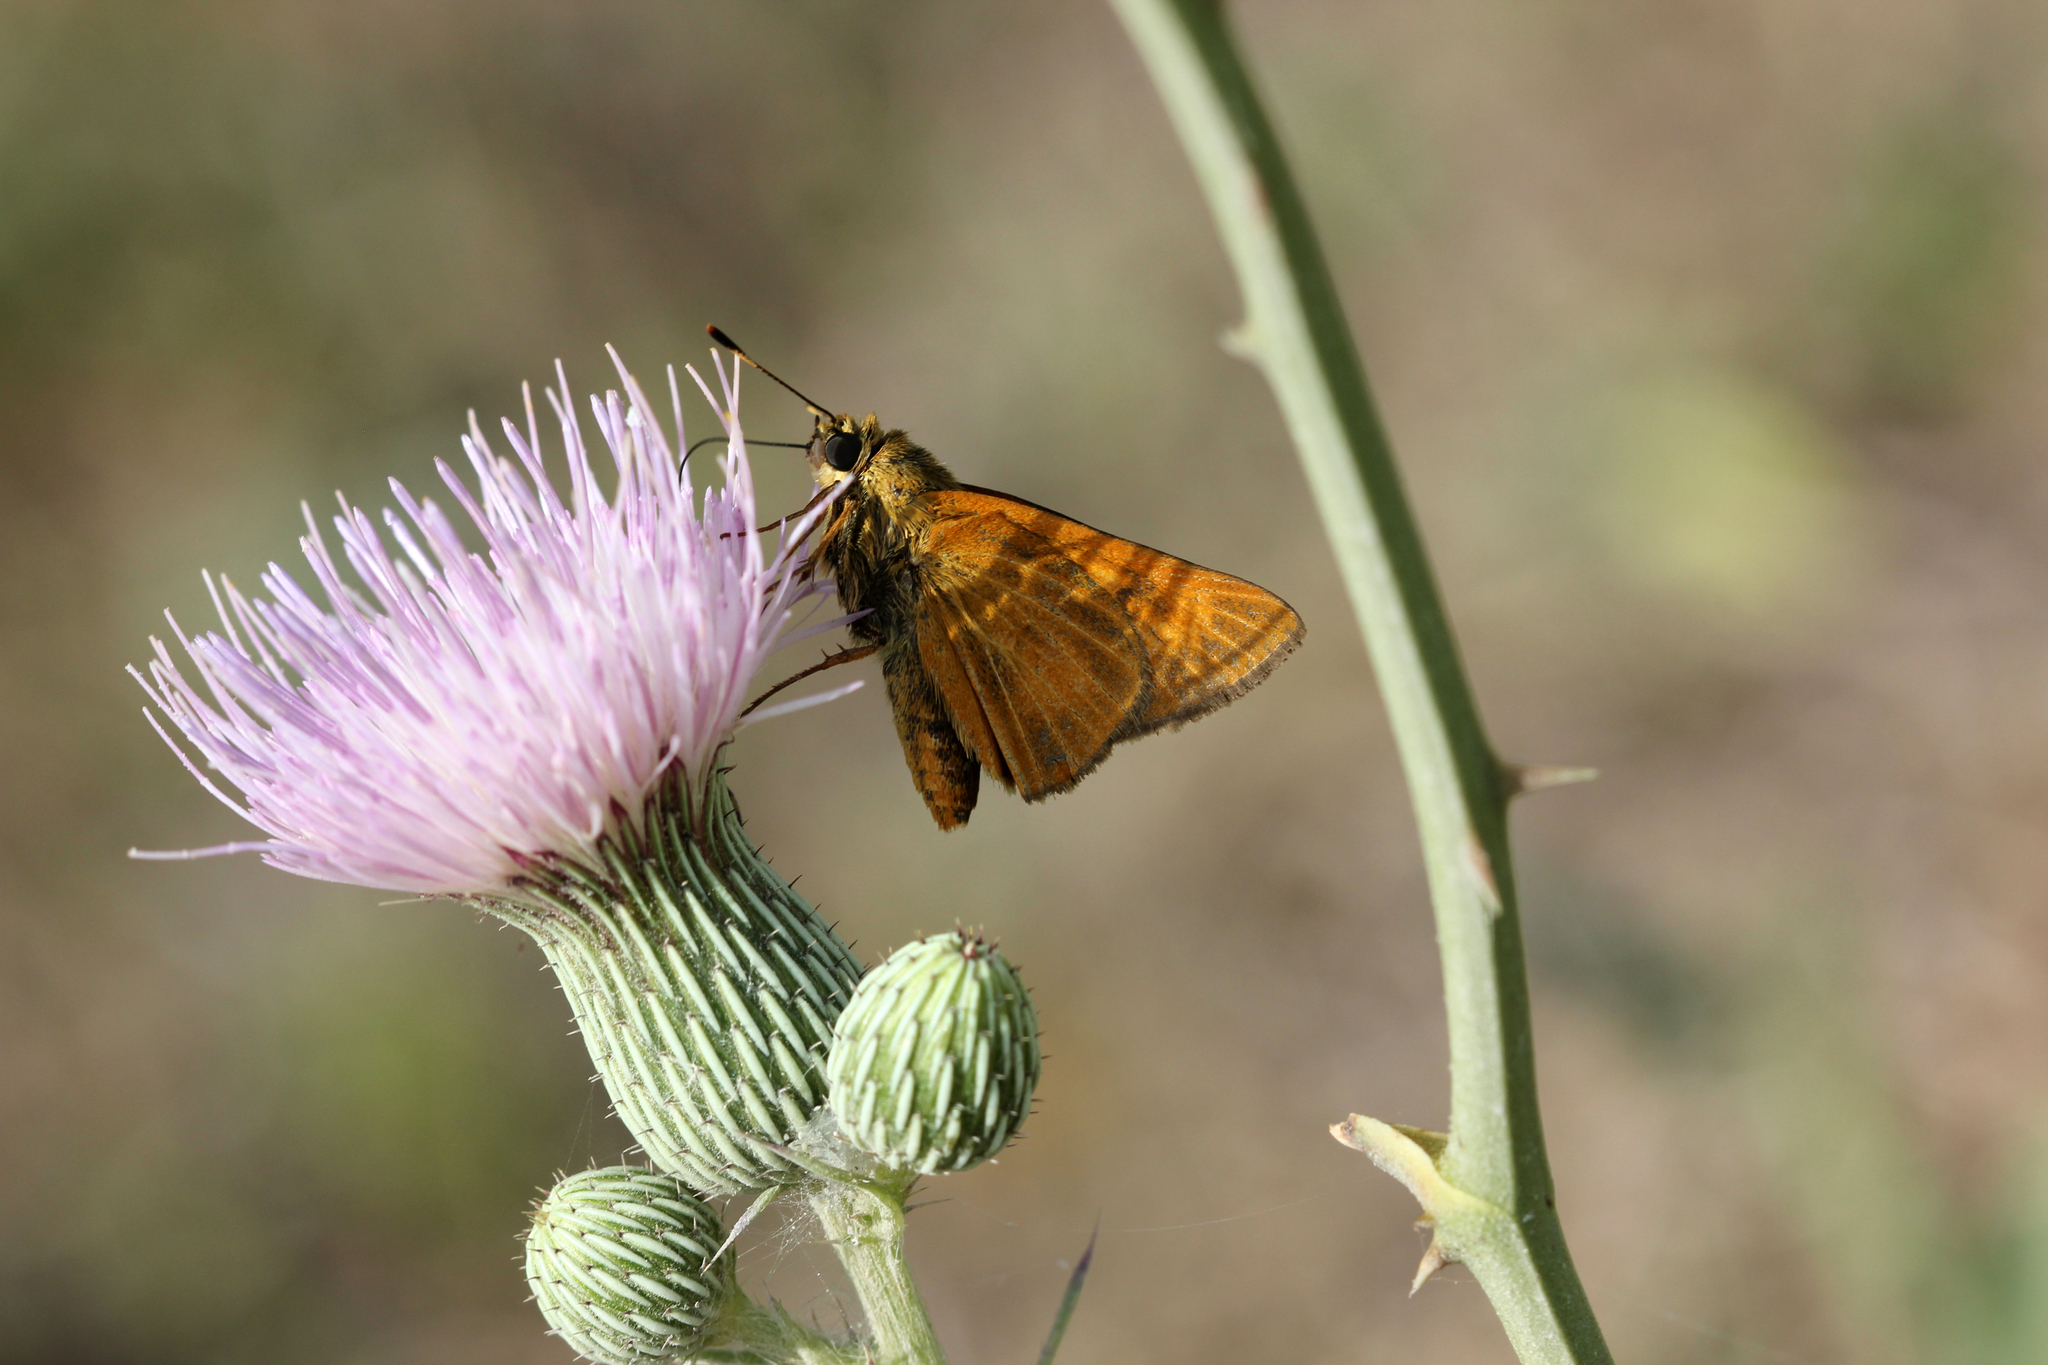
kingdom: Animalia
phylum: Arthropoda
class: Insecta
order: Lepidoptera
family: Hesperiidae
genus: Problema
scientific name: Problema byssus
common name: Byssus skipper
